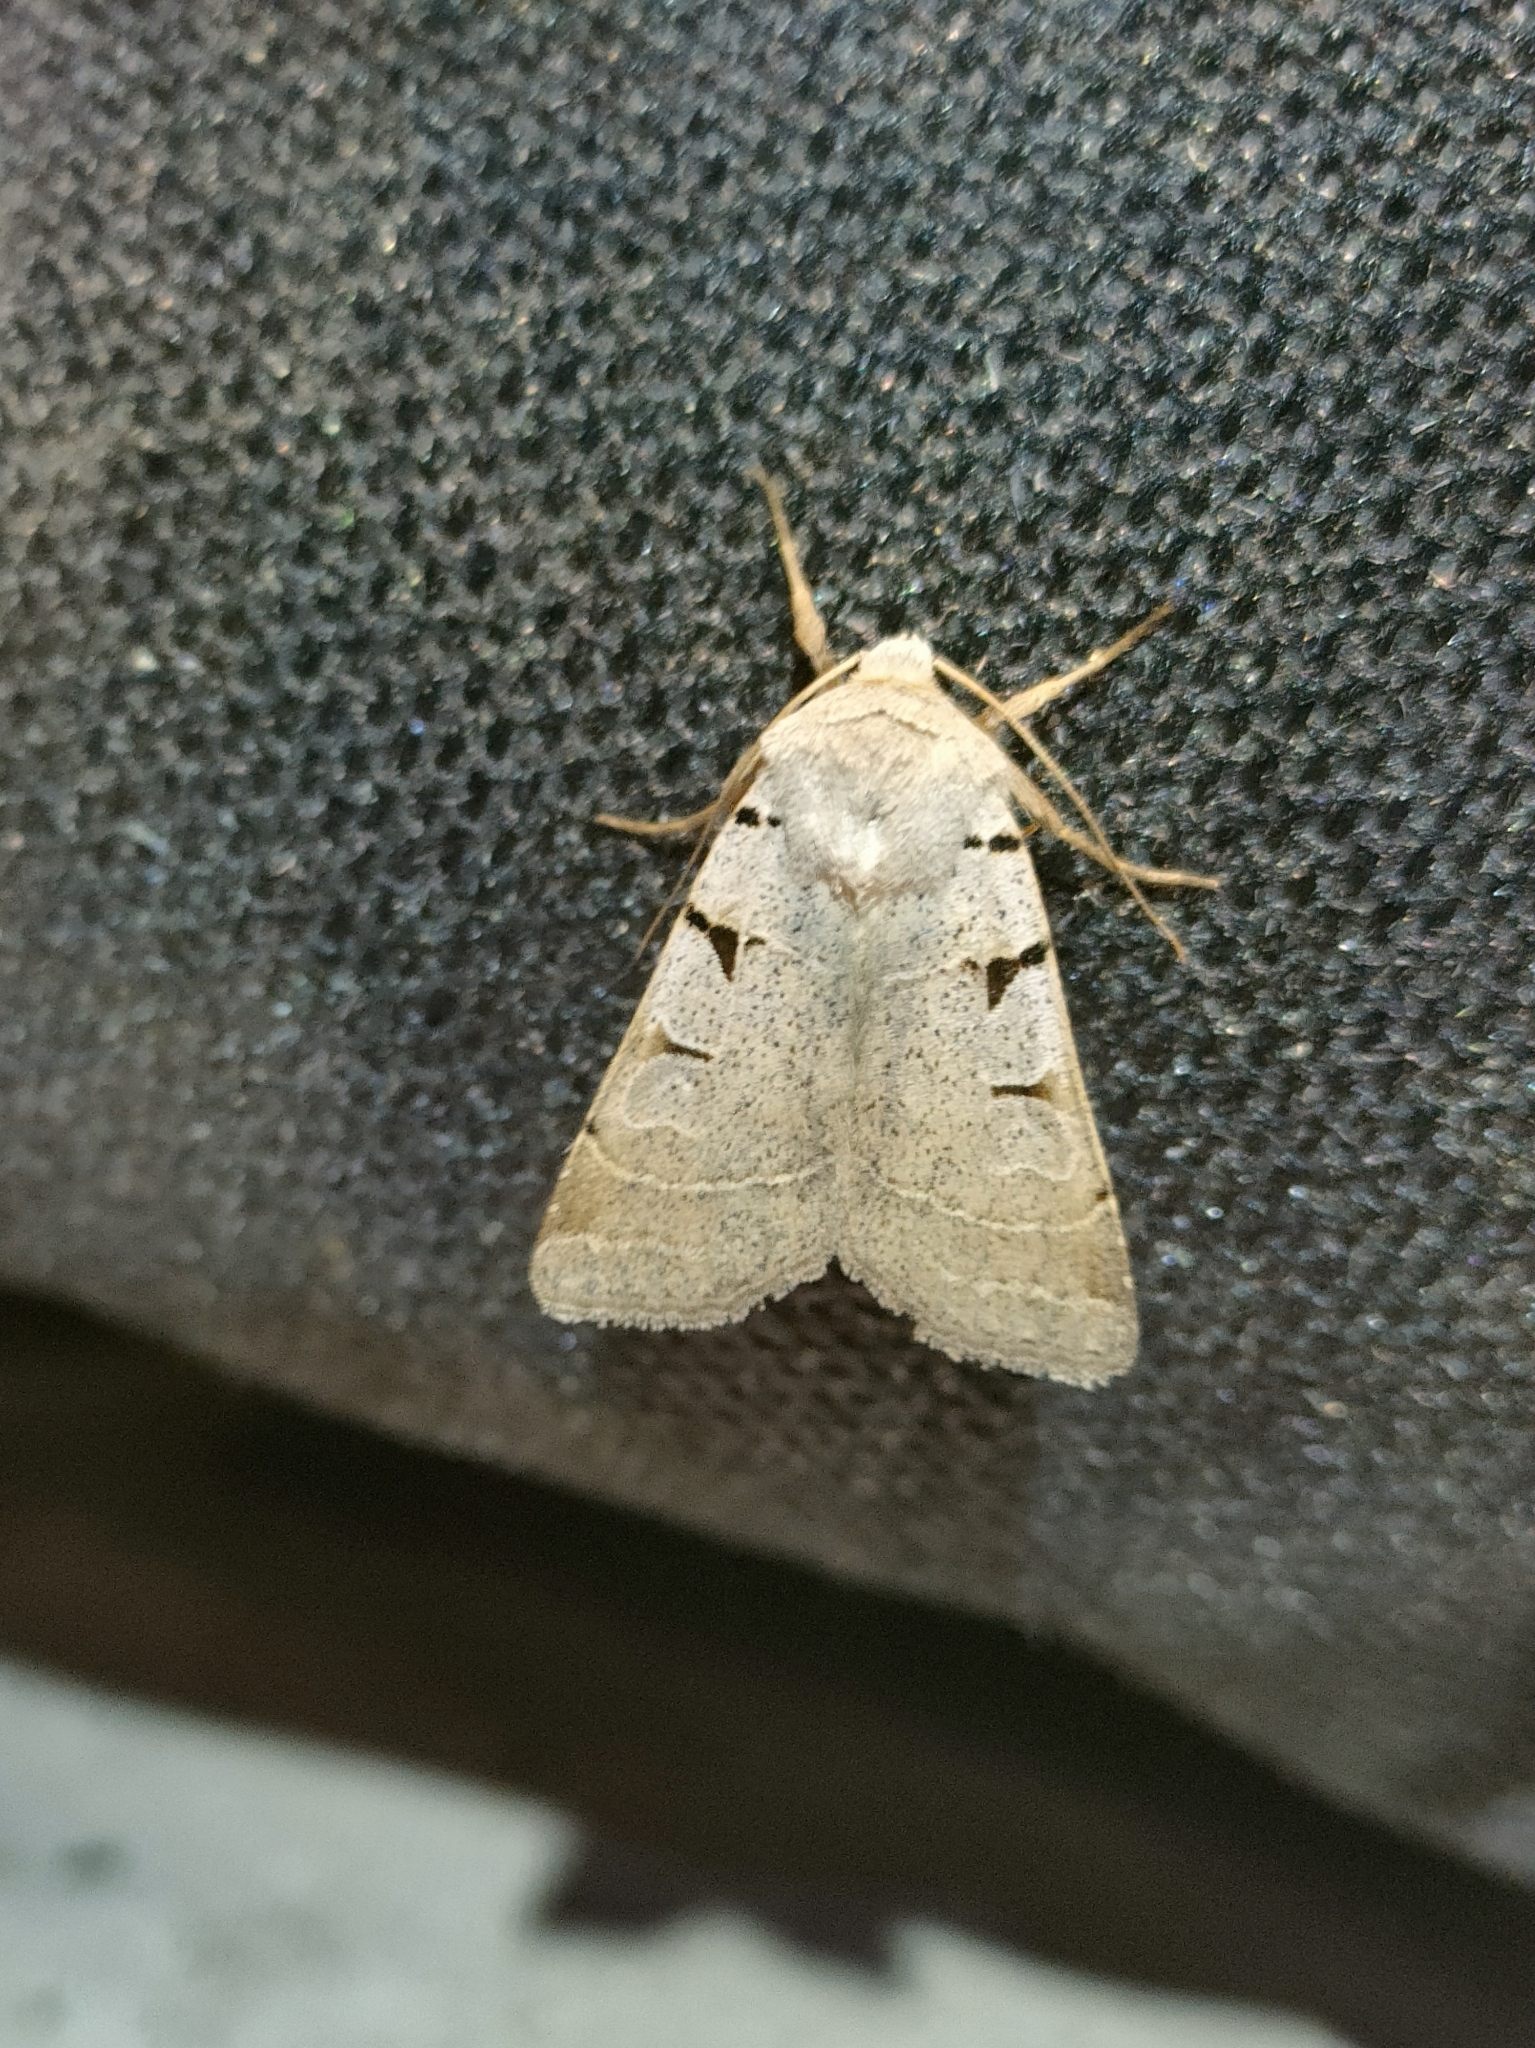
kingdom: Animalia
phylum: Arthropoda
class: Insecta
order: Lepidoptera
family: Noctuidae
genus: Eugnorisma
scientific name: Eugnorisma glareosa
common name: Autumnal rustic
